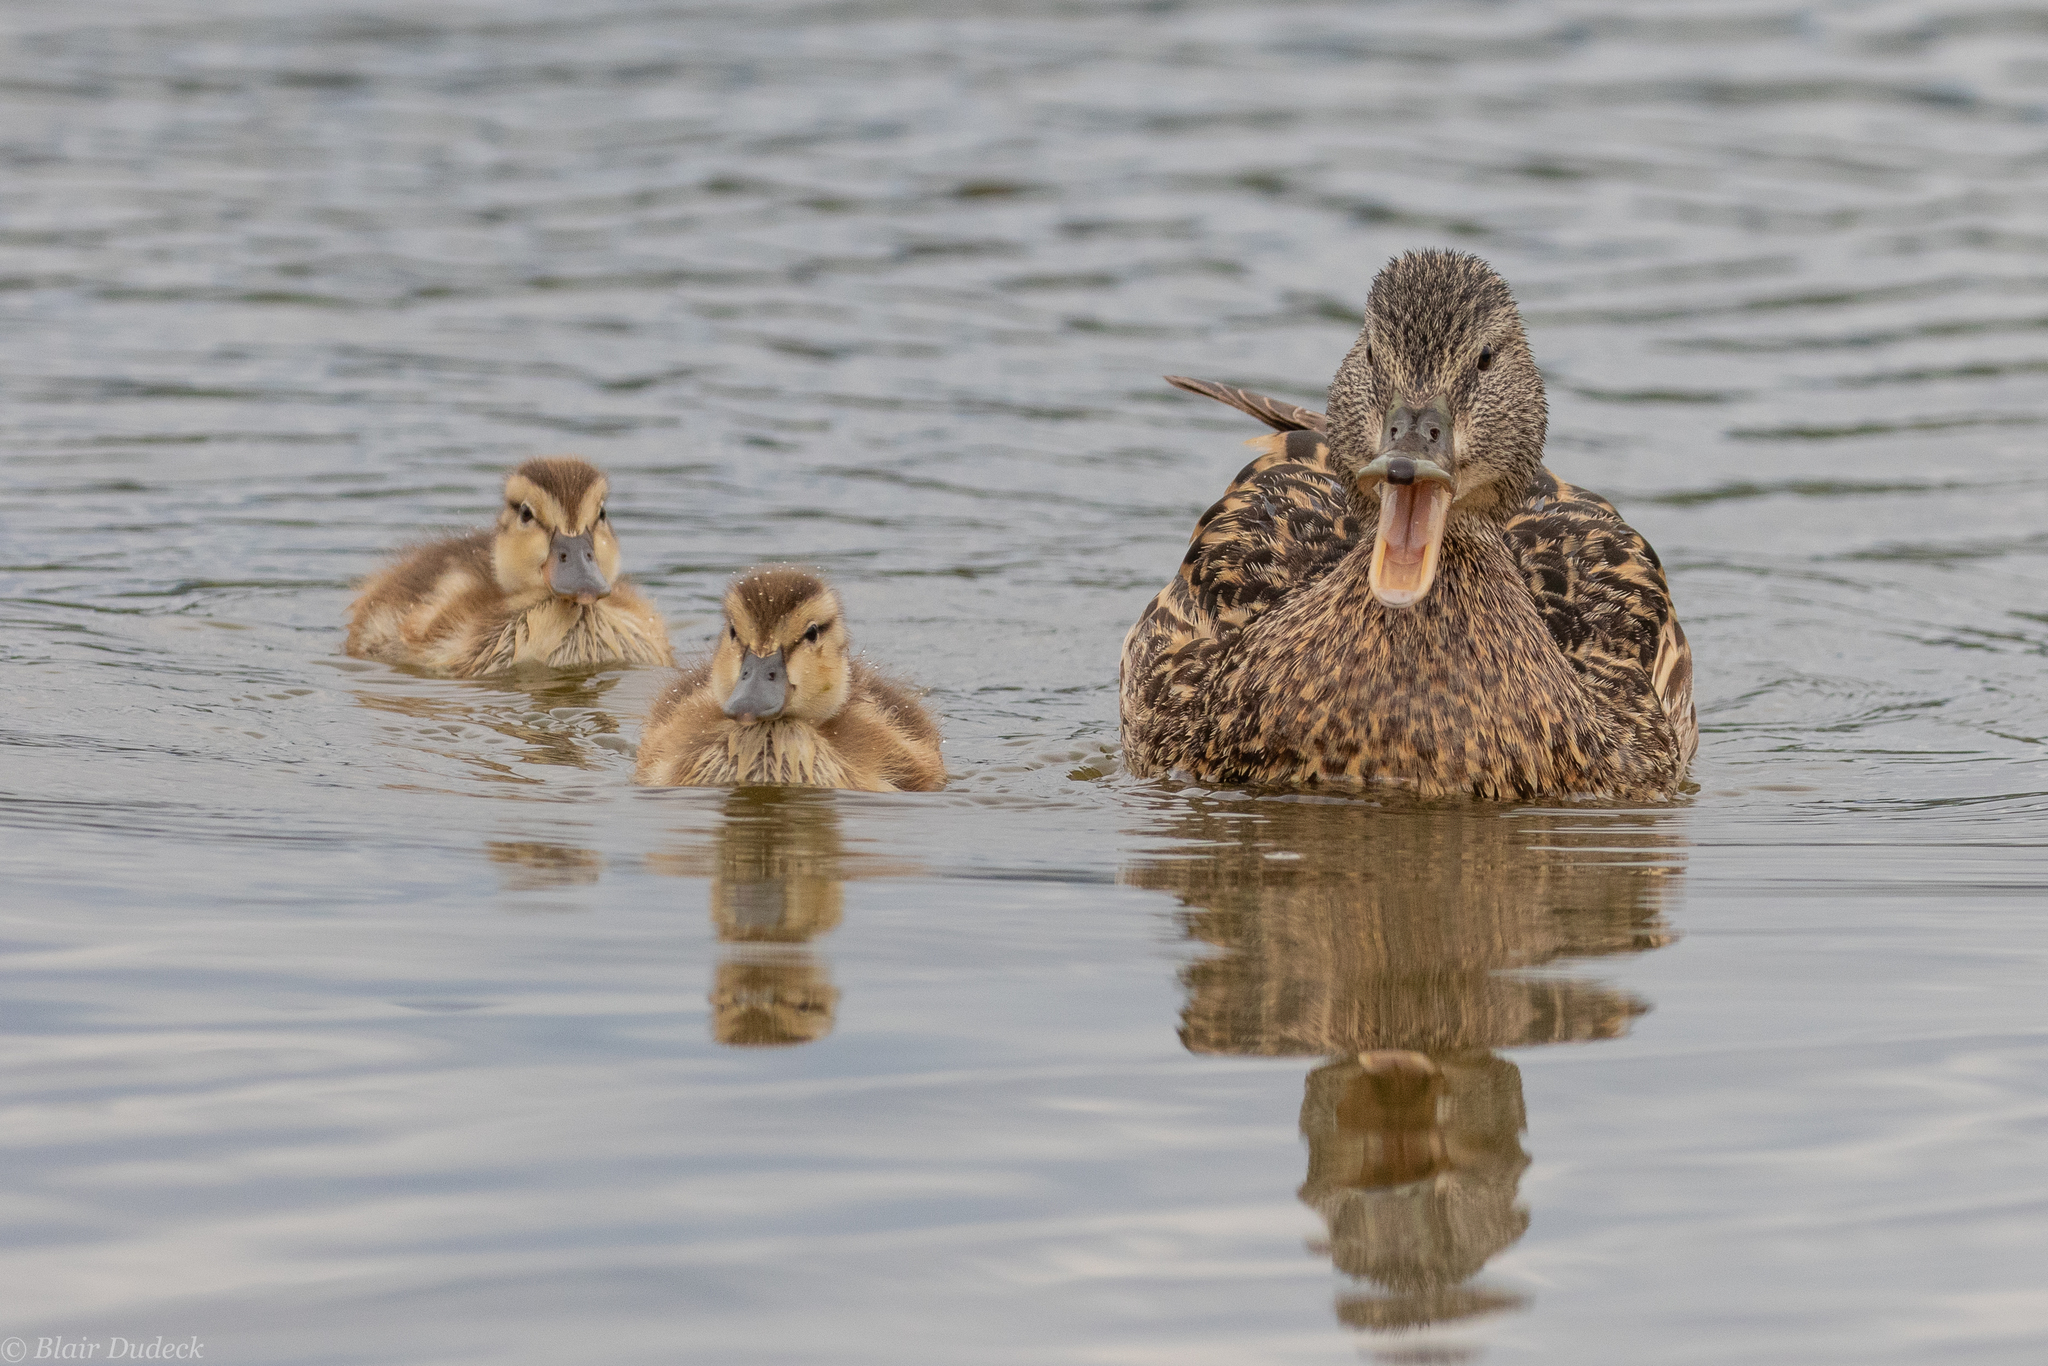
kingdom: Animalia
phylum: Chordata
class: Aves
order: Anseriformes
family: Anatidae
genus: Anas
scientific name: Anas platyrhynchos
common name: Mallard
